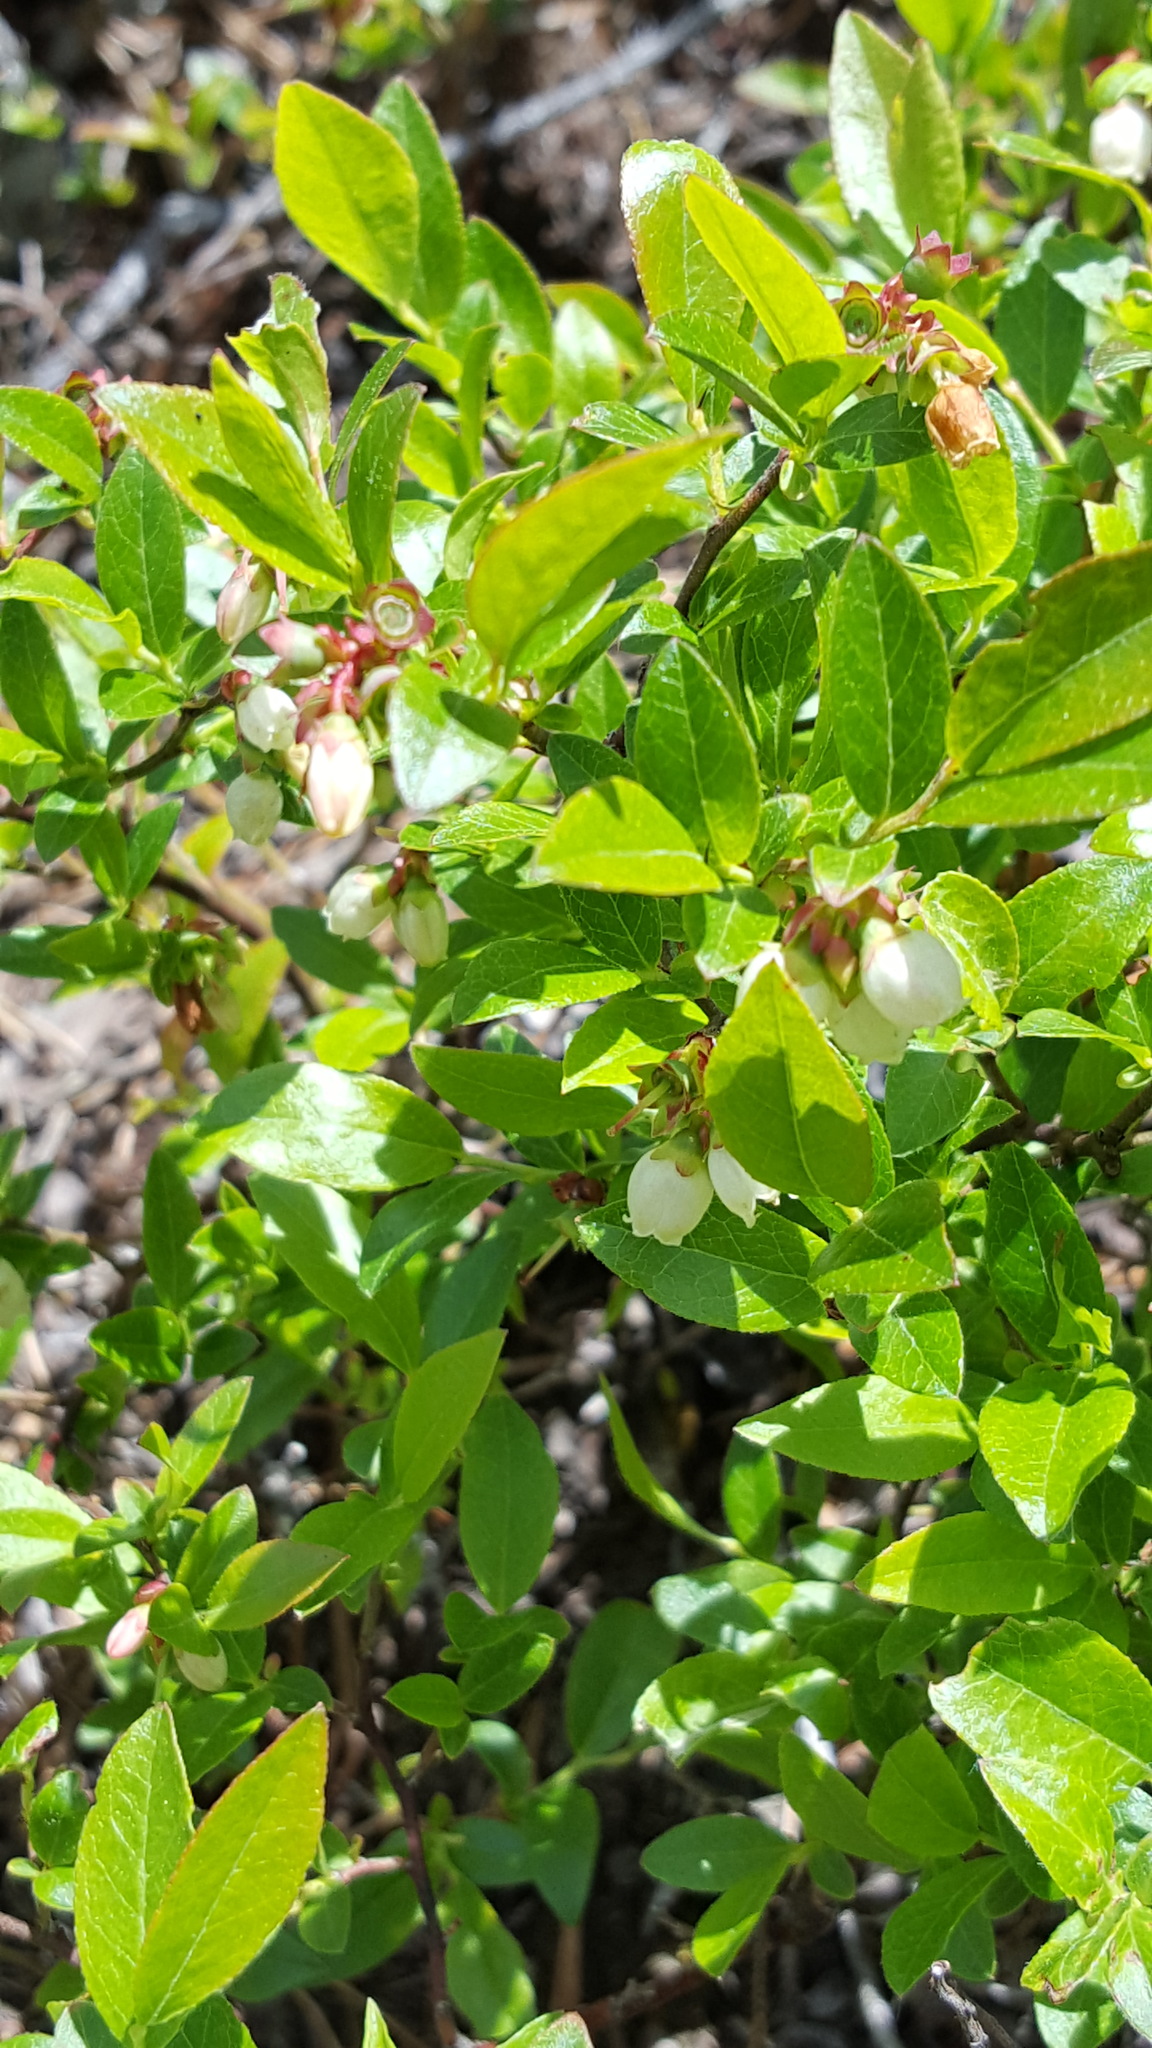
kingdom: Plantae
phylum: Tracheophyta
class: Magnoliopsida
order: Ericales
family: Ericaceae
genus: Vaccinium
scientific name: Vaccinium angustifolium
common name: Early lowbush blueberry
